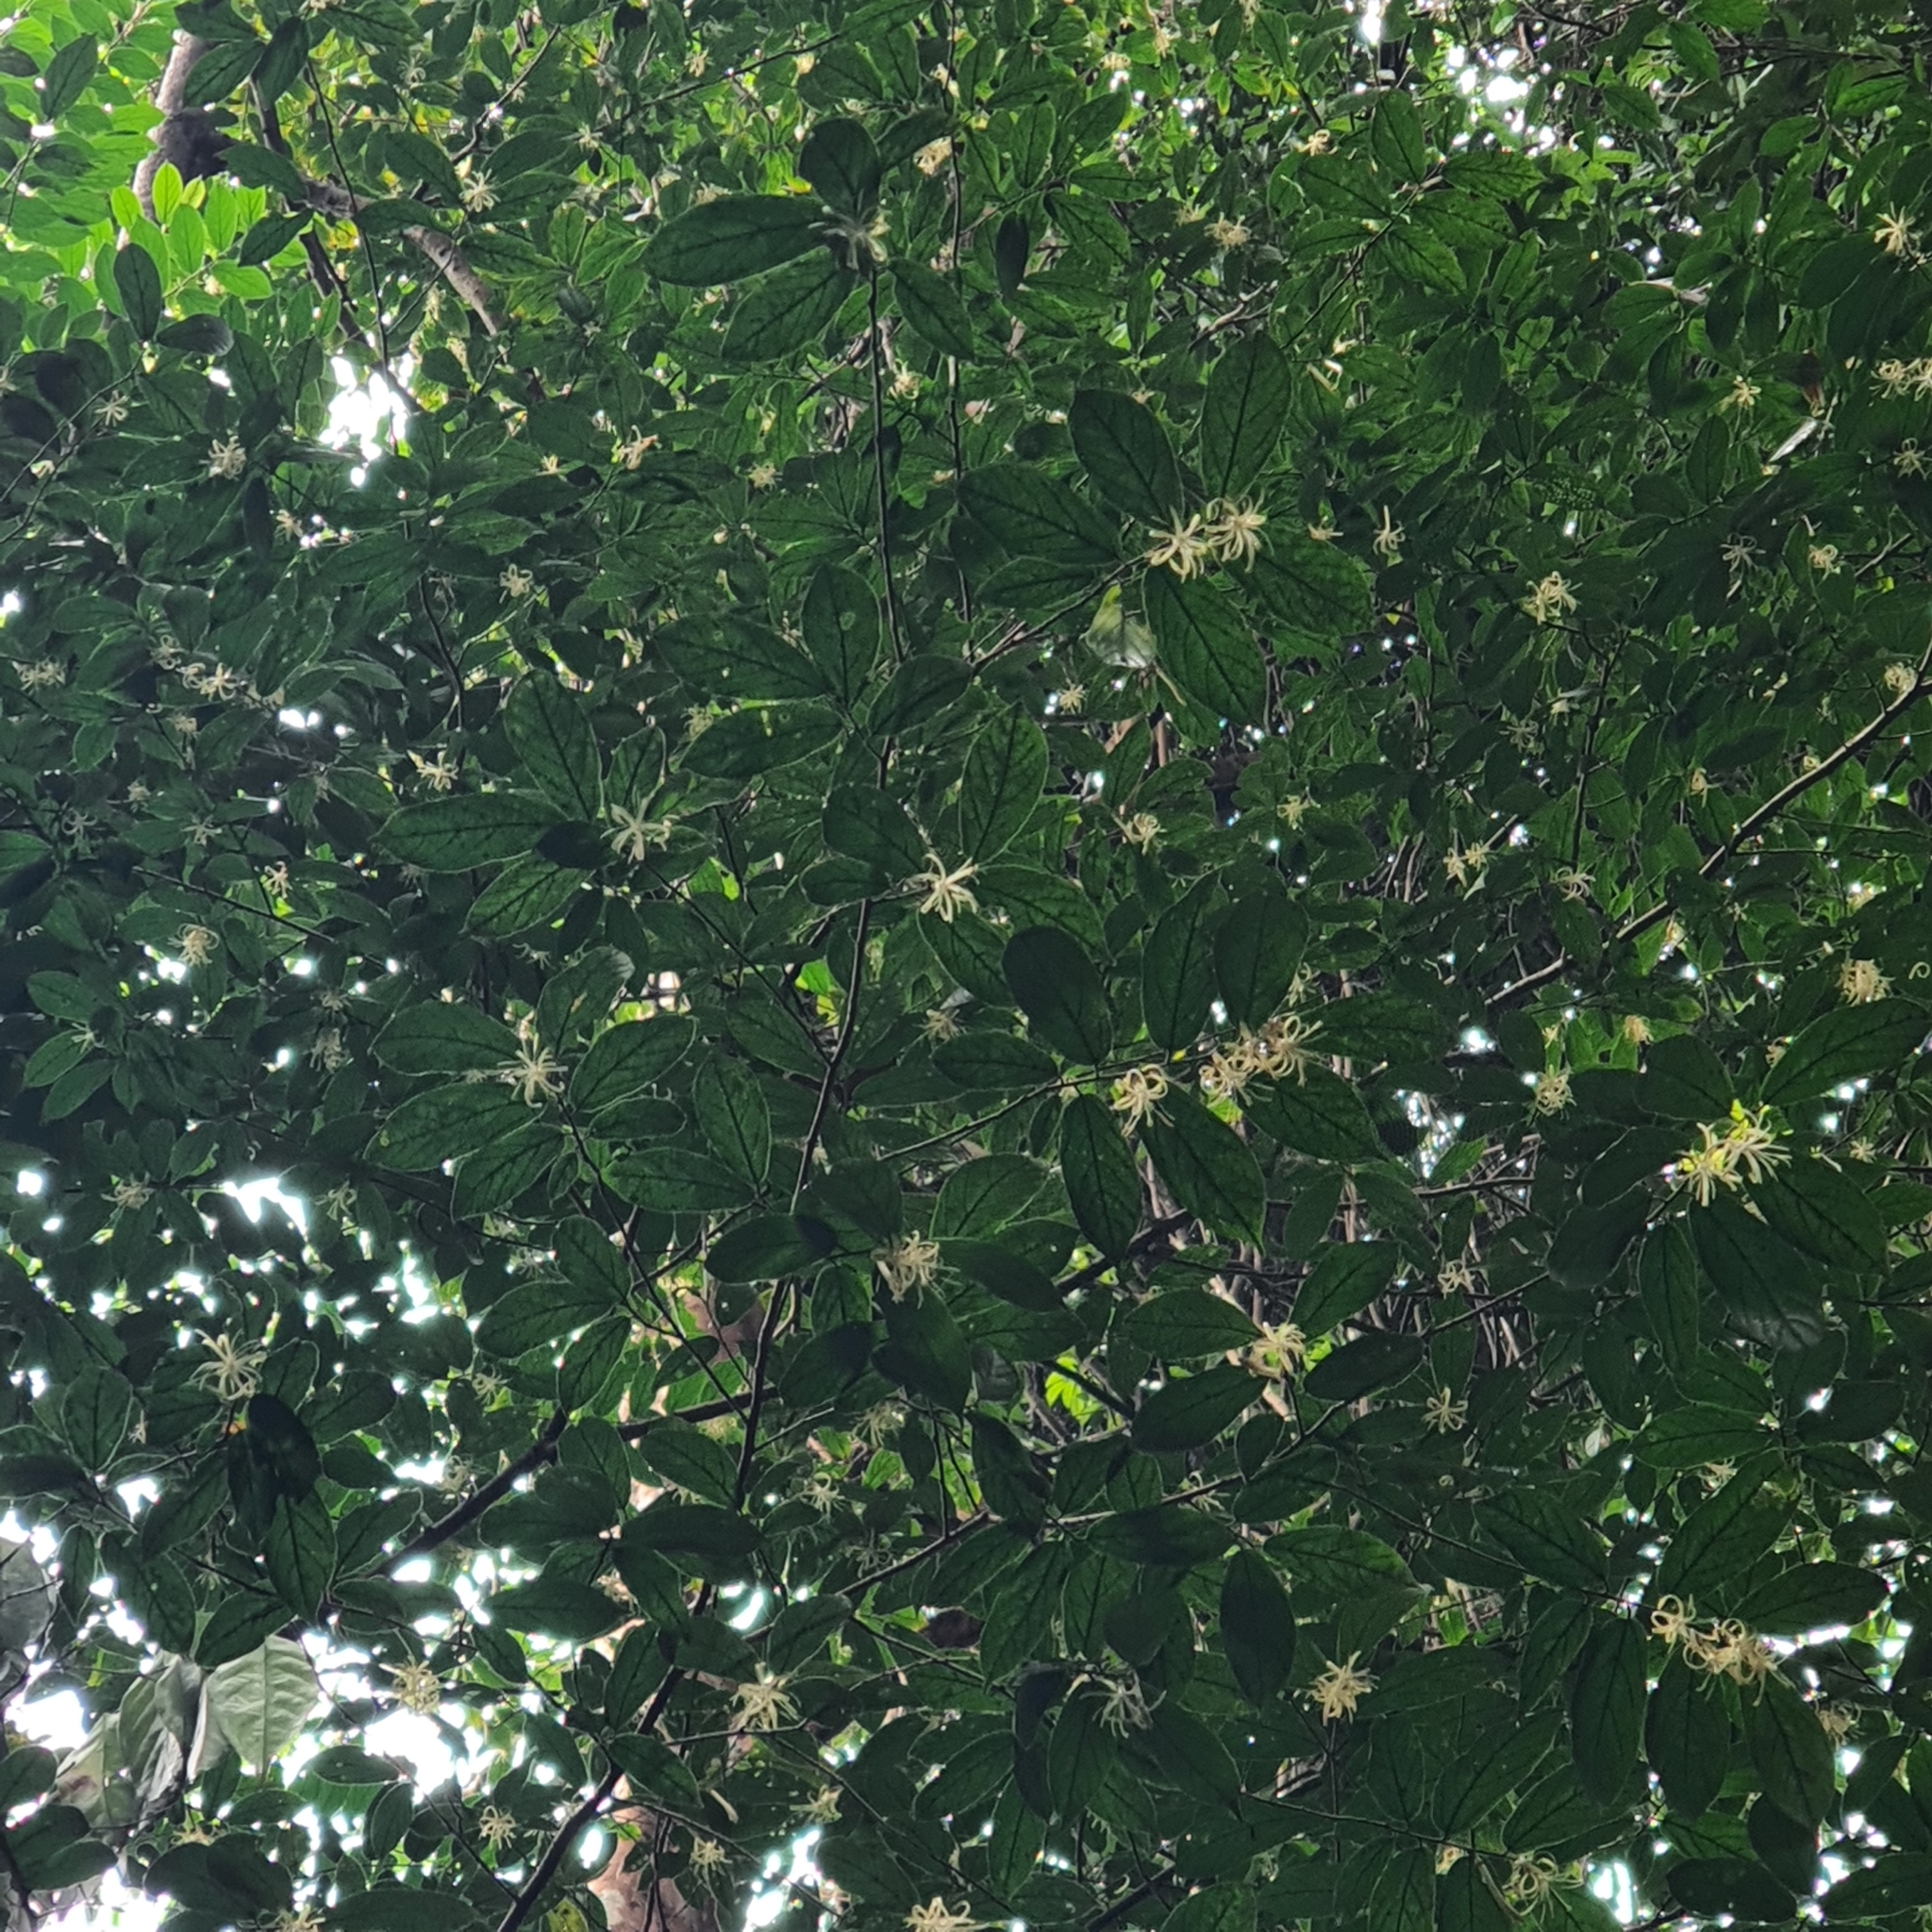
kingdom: Plantae
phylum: Tracheophyta
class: Magnoliopsida
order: Cornales
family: Cornaceae
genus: Alangium
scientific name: Alangium longiflorum
